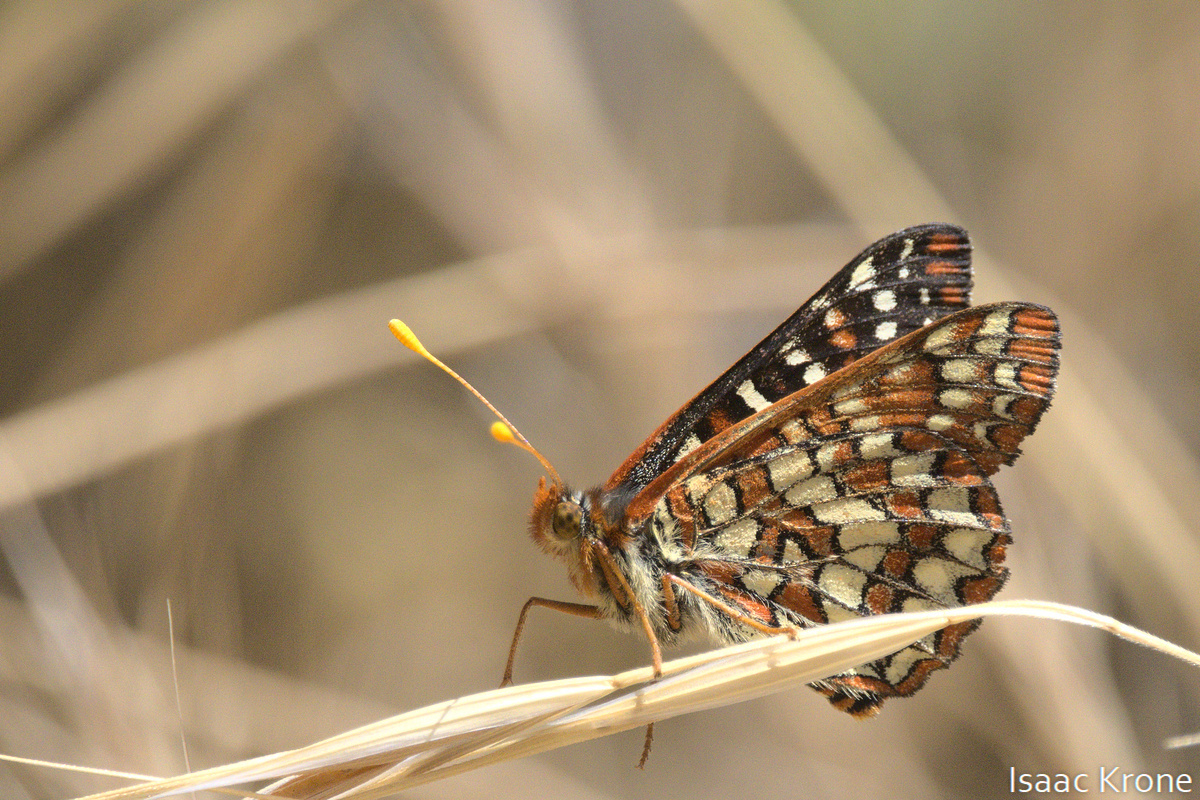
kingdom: Animalia
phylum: Arthropoda
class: Insecta
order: Lepidoptera
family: Nymphalidae
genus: Occidryas
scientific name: Occidryas chalcedona
